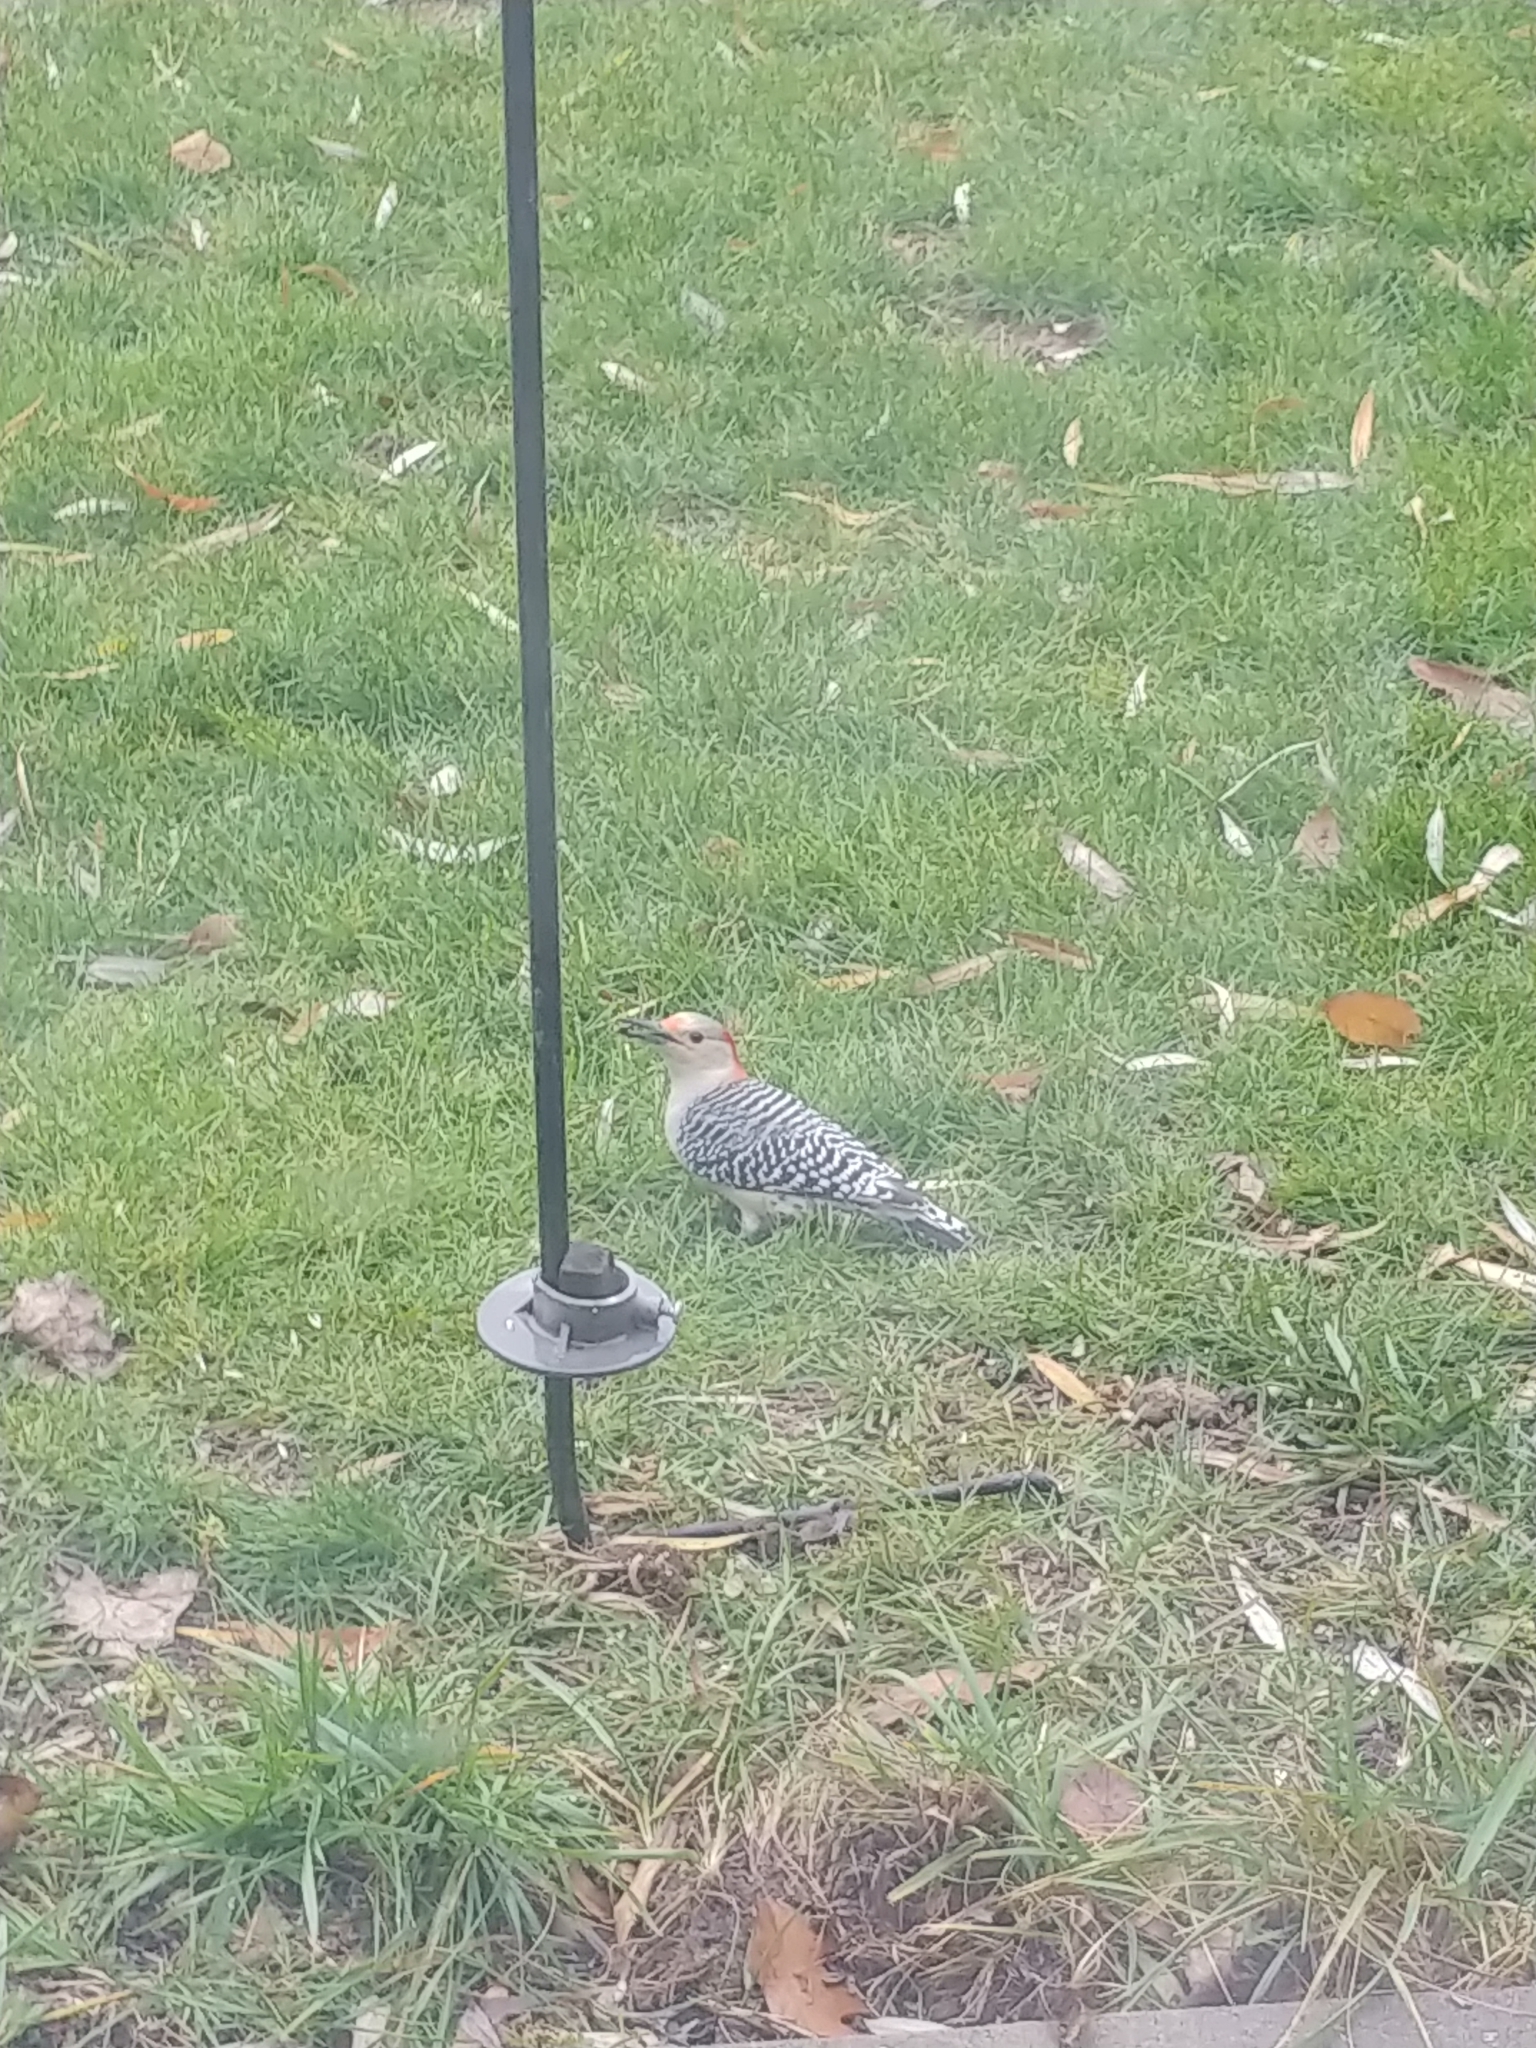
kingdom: Animalia
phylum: Chordata
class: Aves
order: Piciformes
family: Picidae
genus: Melanerpes
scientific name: Melanerpes carolinus
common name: Red-bellied woodpecker
